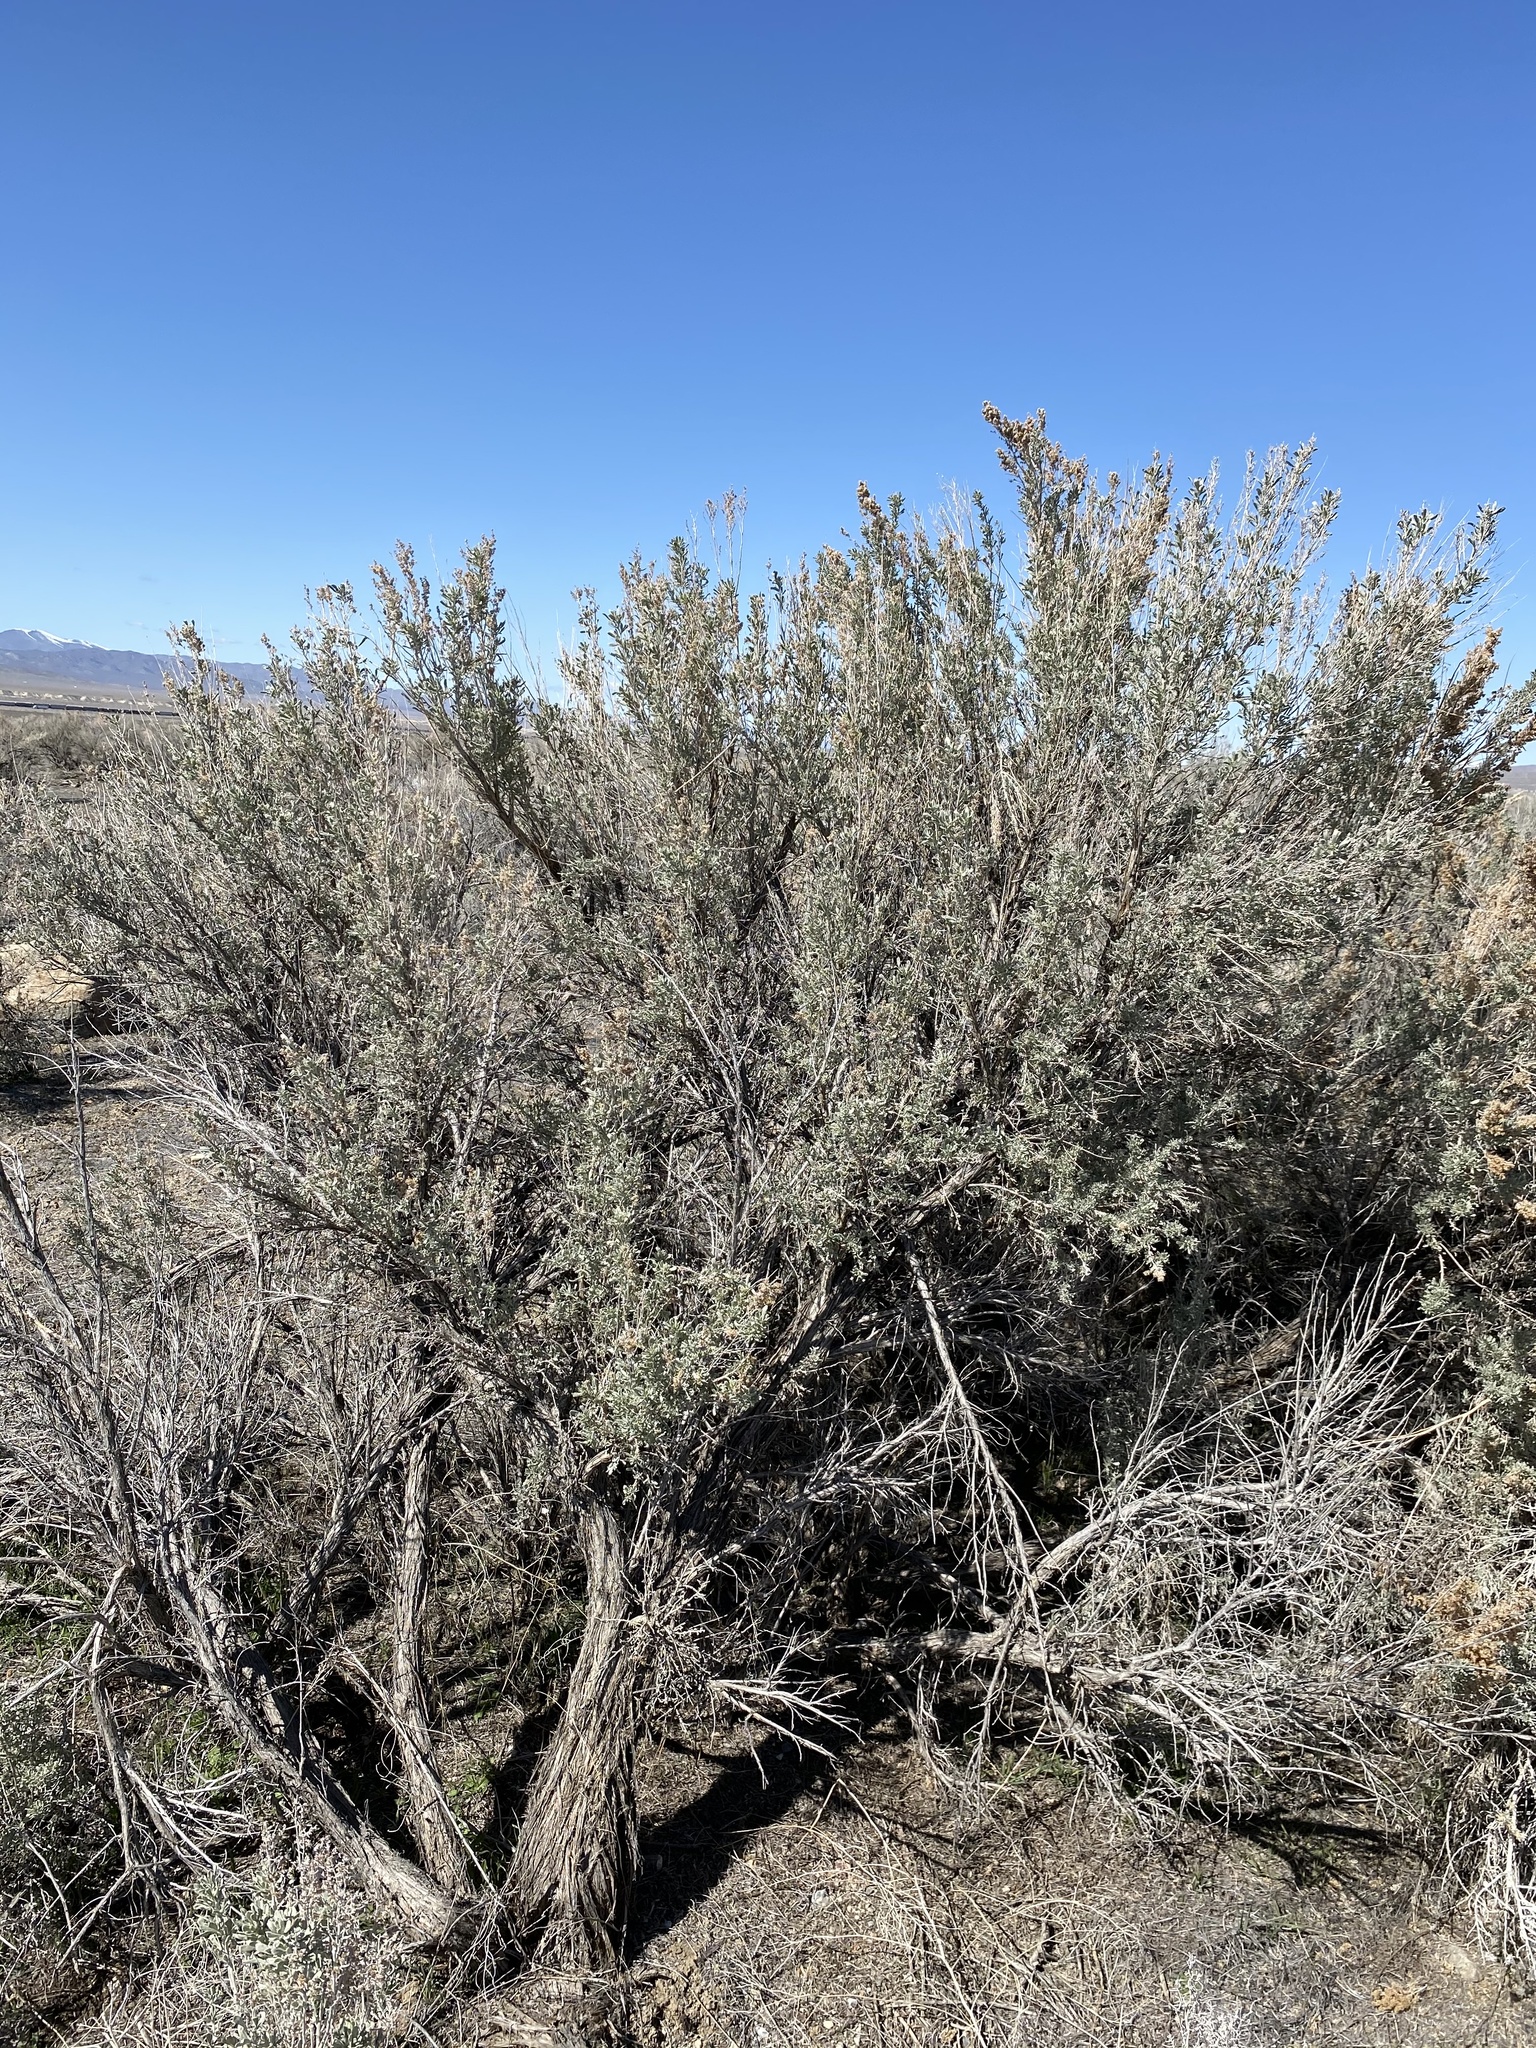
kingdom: Plantae
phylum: Tracheophyta
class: Magnoliopsida
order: Asterales
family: Asteraceae
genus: Artemisia
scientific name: Artemisia tridentata
